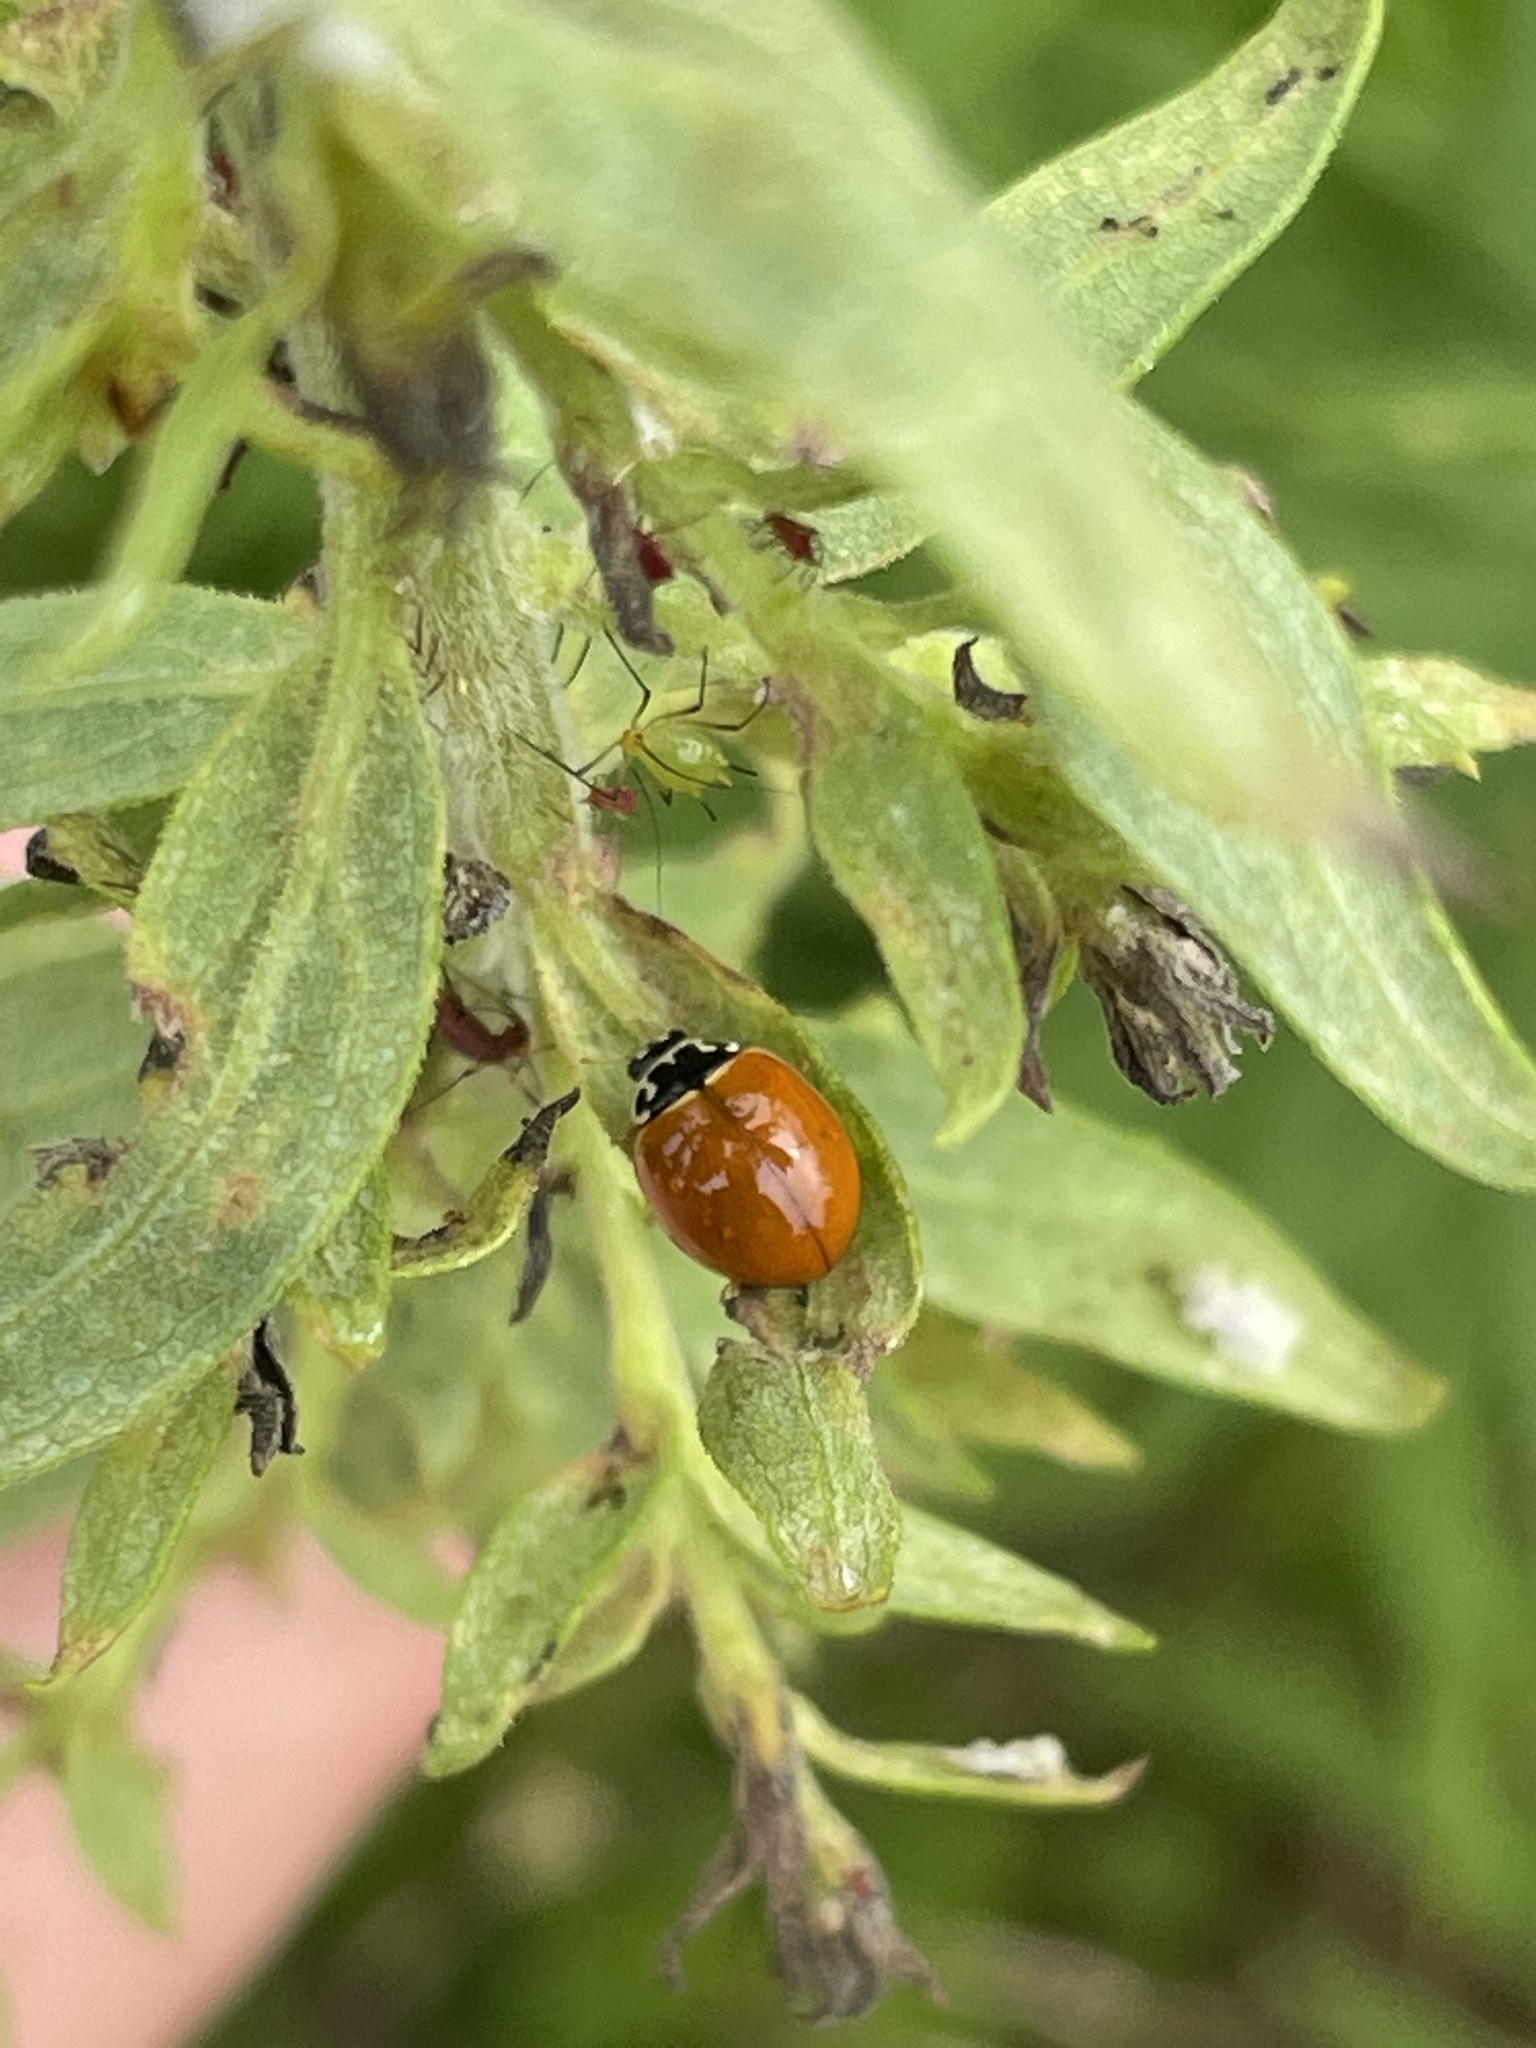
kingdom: Animalia
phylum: Arthropoda
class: Insecta
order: Coleoptera
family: Coccinellidae
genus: Cycloneda
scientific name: Cycloneda munda
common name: Polished lady beetle
